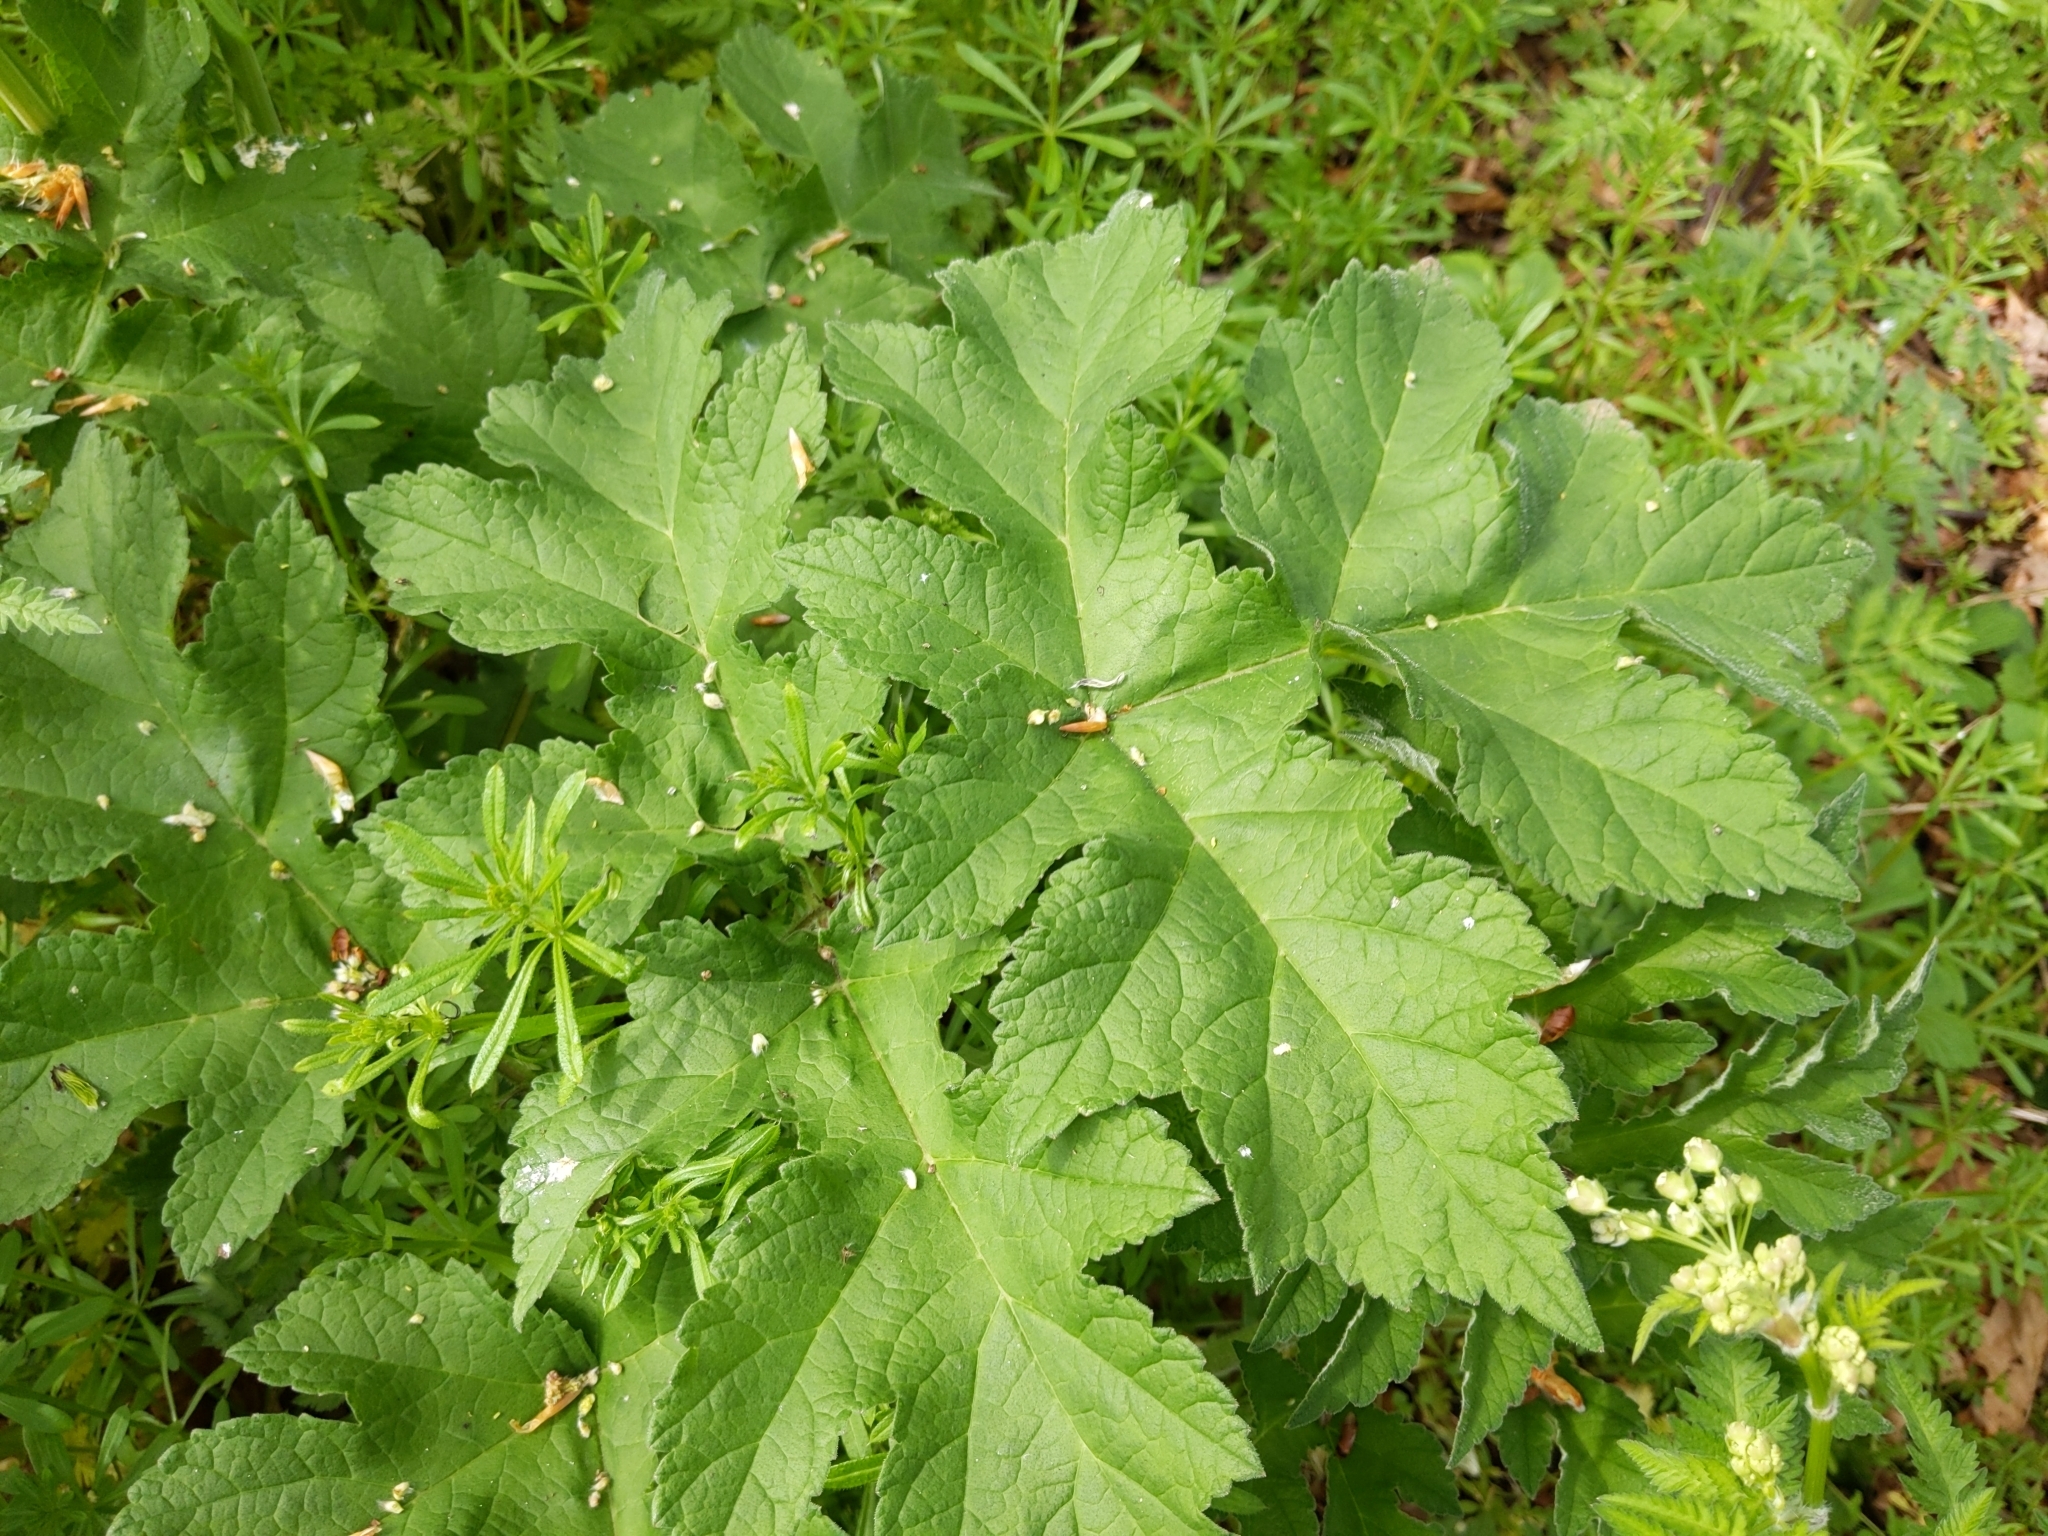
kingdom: Plantae
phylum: Tracheophyta
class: Magnoliopsida
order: Apiales
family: Apiaceae
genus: Heracleum
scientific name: Heracleum sphondylium
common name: Hogweed
